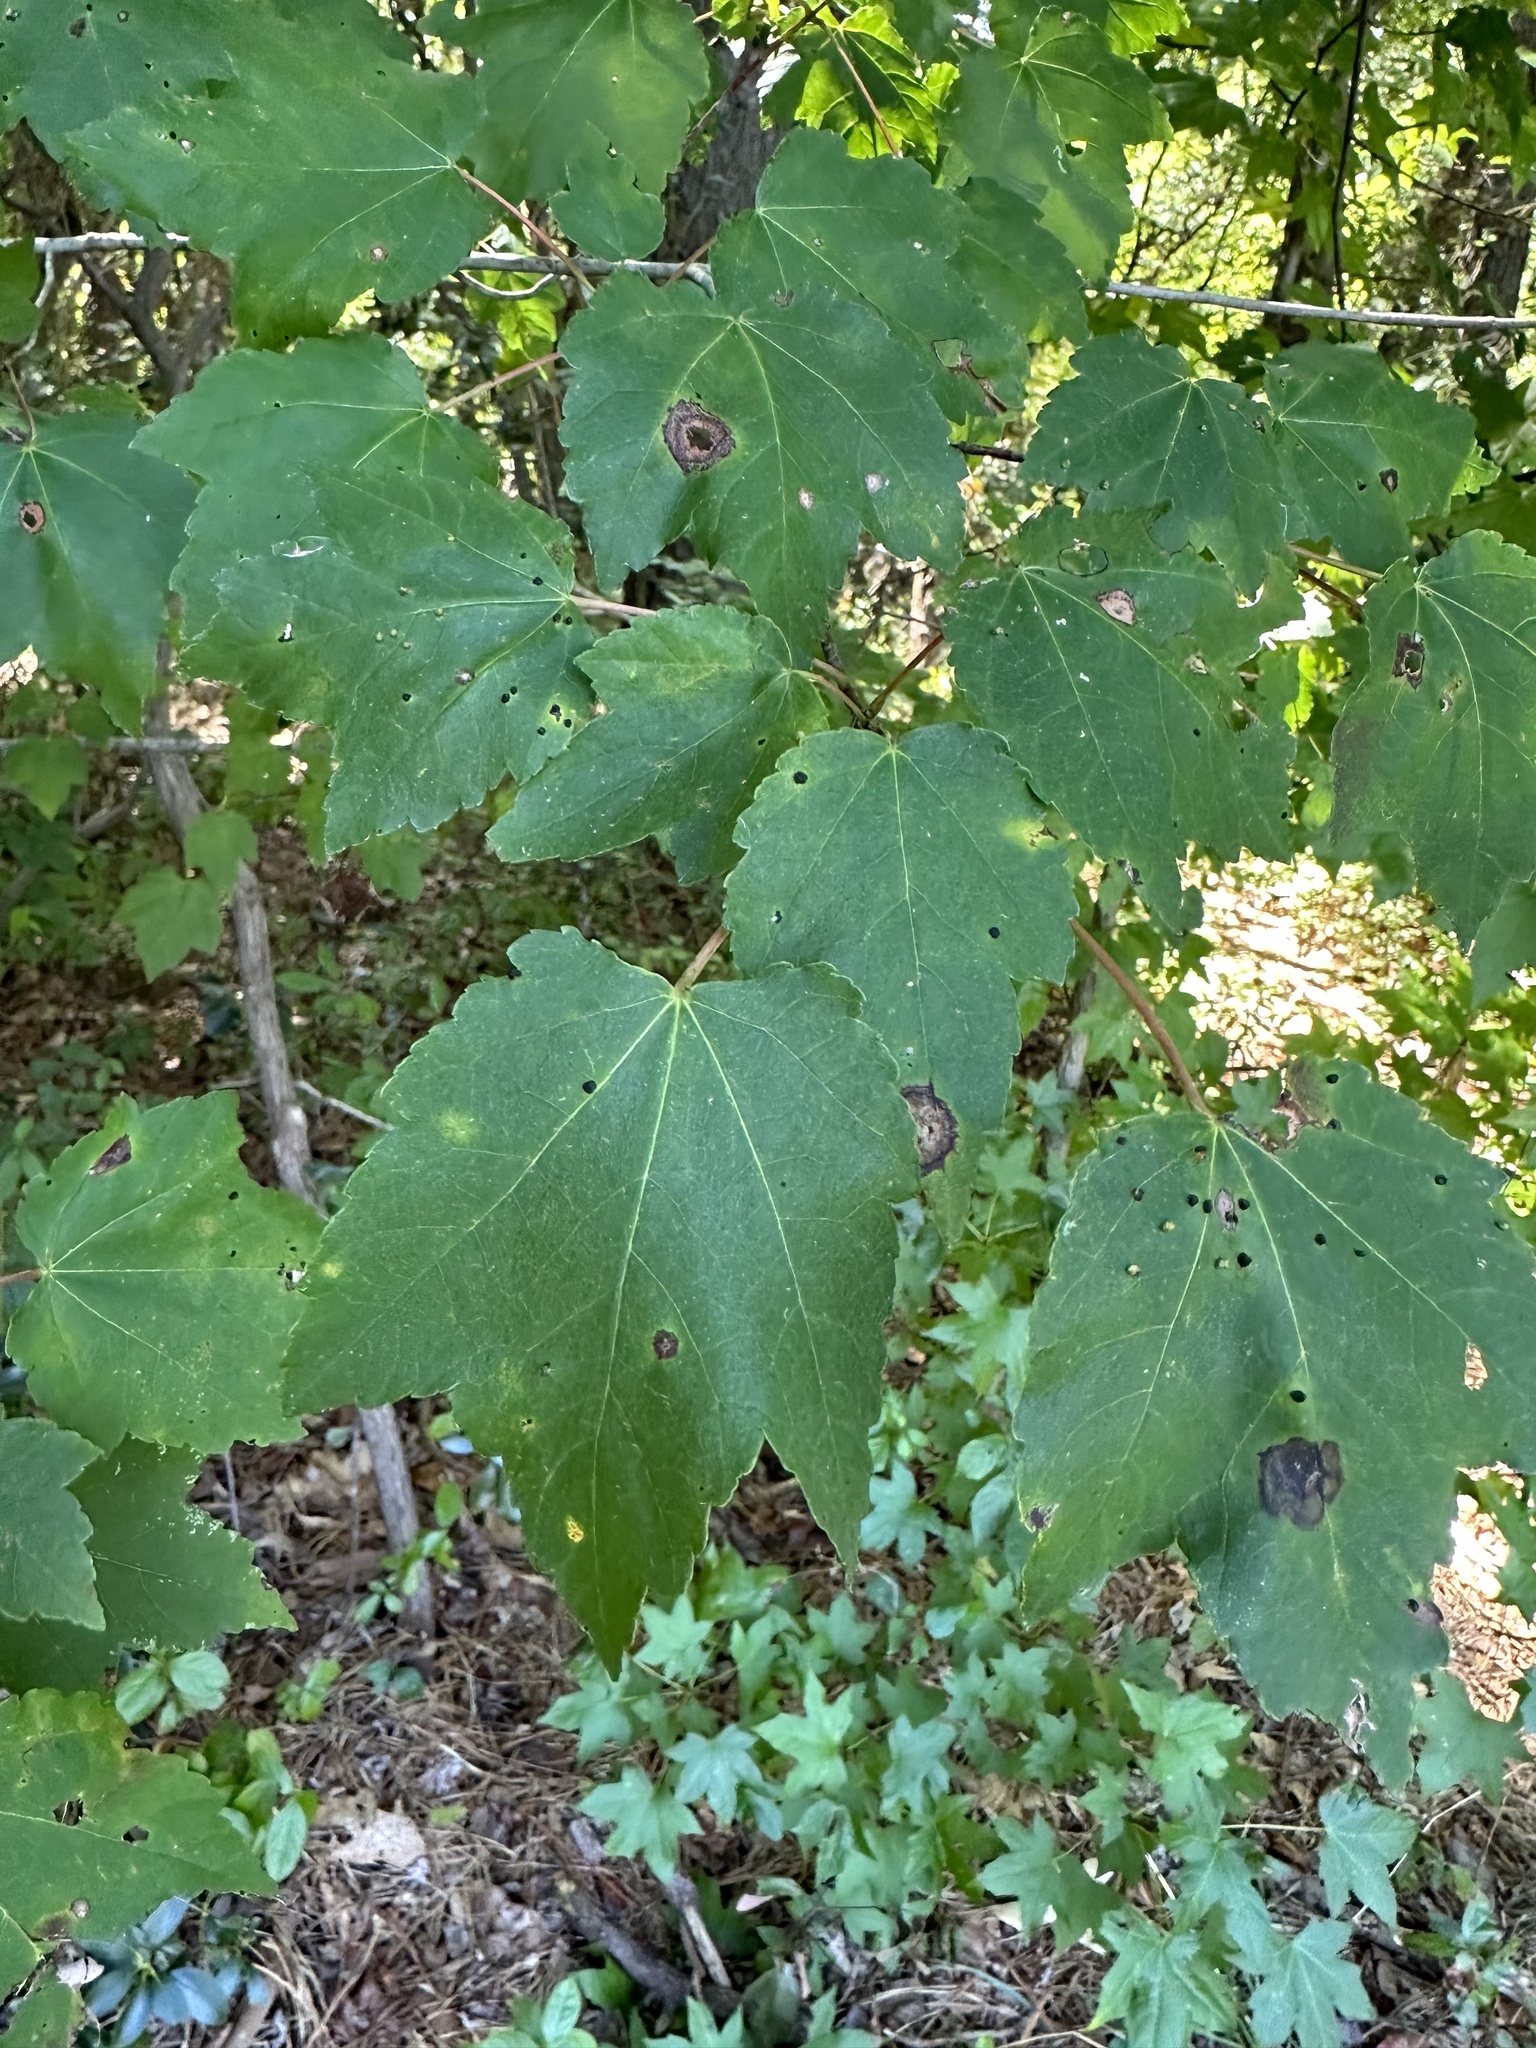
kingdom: Plantae
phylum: Tracheophyta
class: Magnoliopsida
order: Sapindales
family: Sapindaceae
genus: Acer
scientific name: Acer rubrum
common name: Red maple
